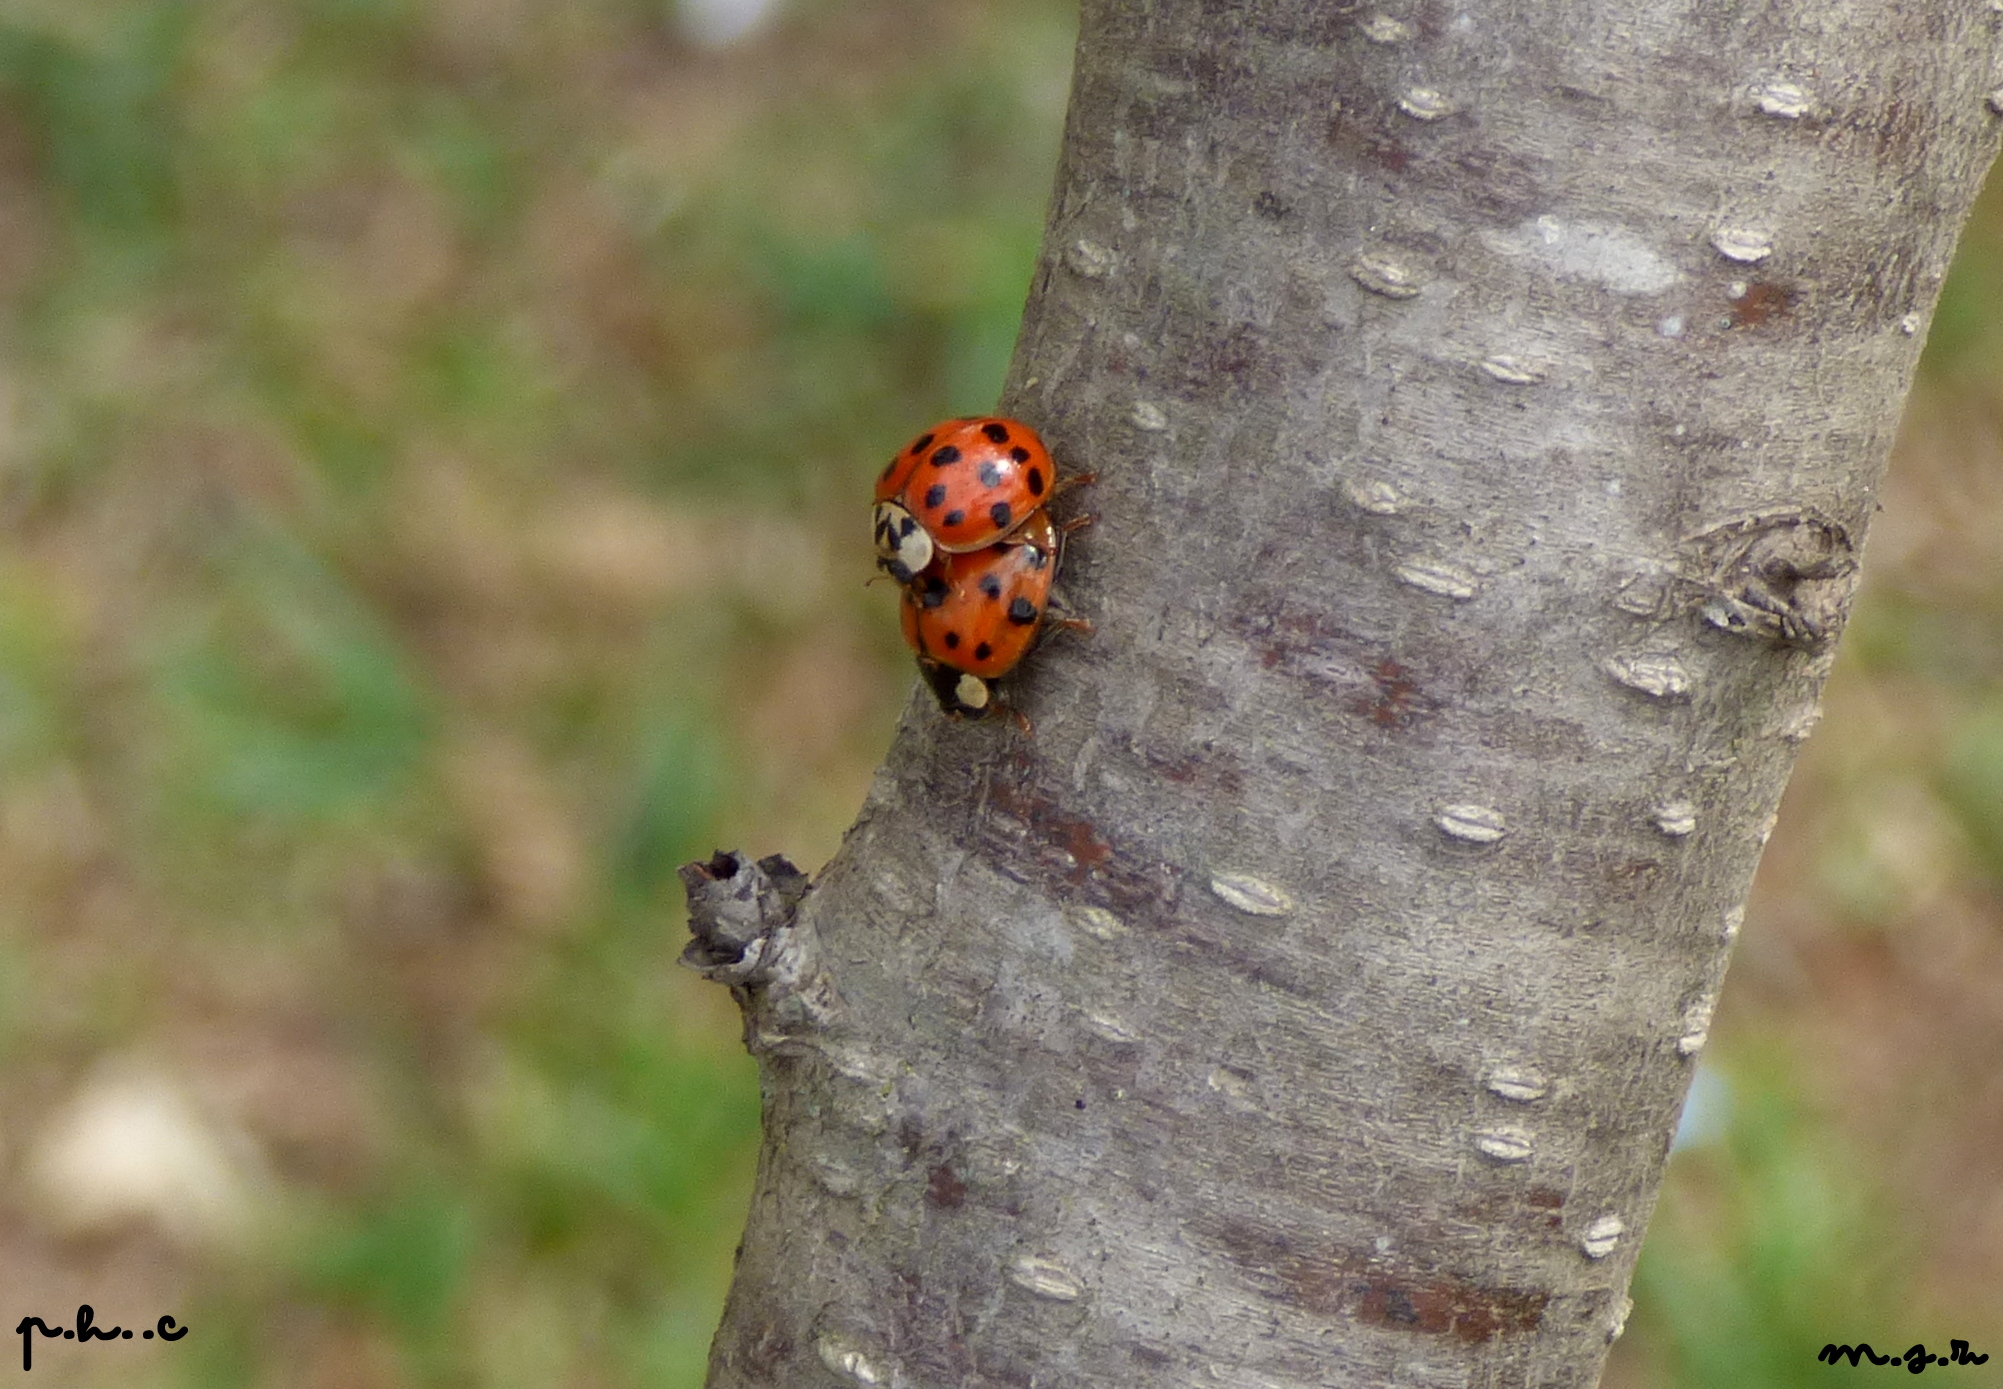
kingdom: Animalia
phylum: Arthropoda
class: Insecta
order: Coleoptera
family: Coccinellidae
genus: Harmonia
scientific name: Harmonia axyridis
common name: Harlequin ladybird
